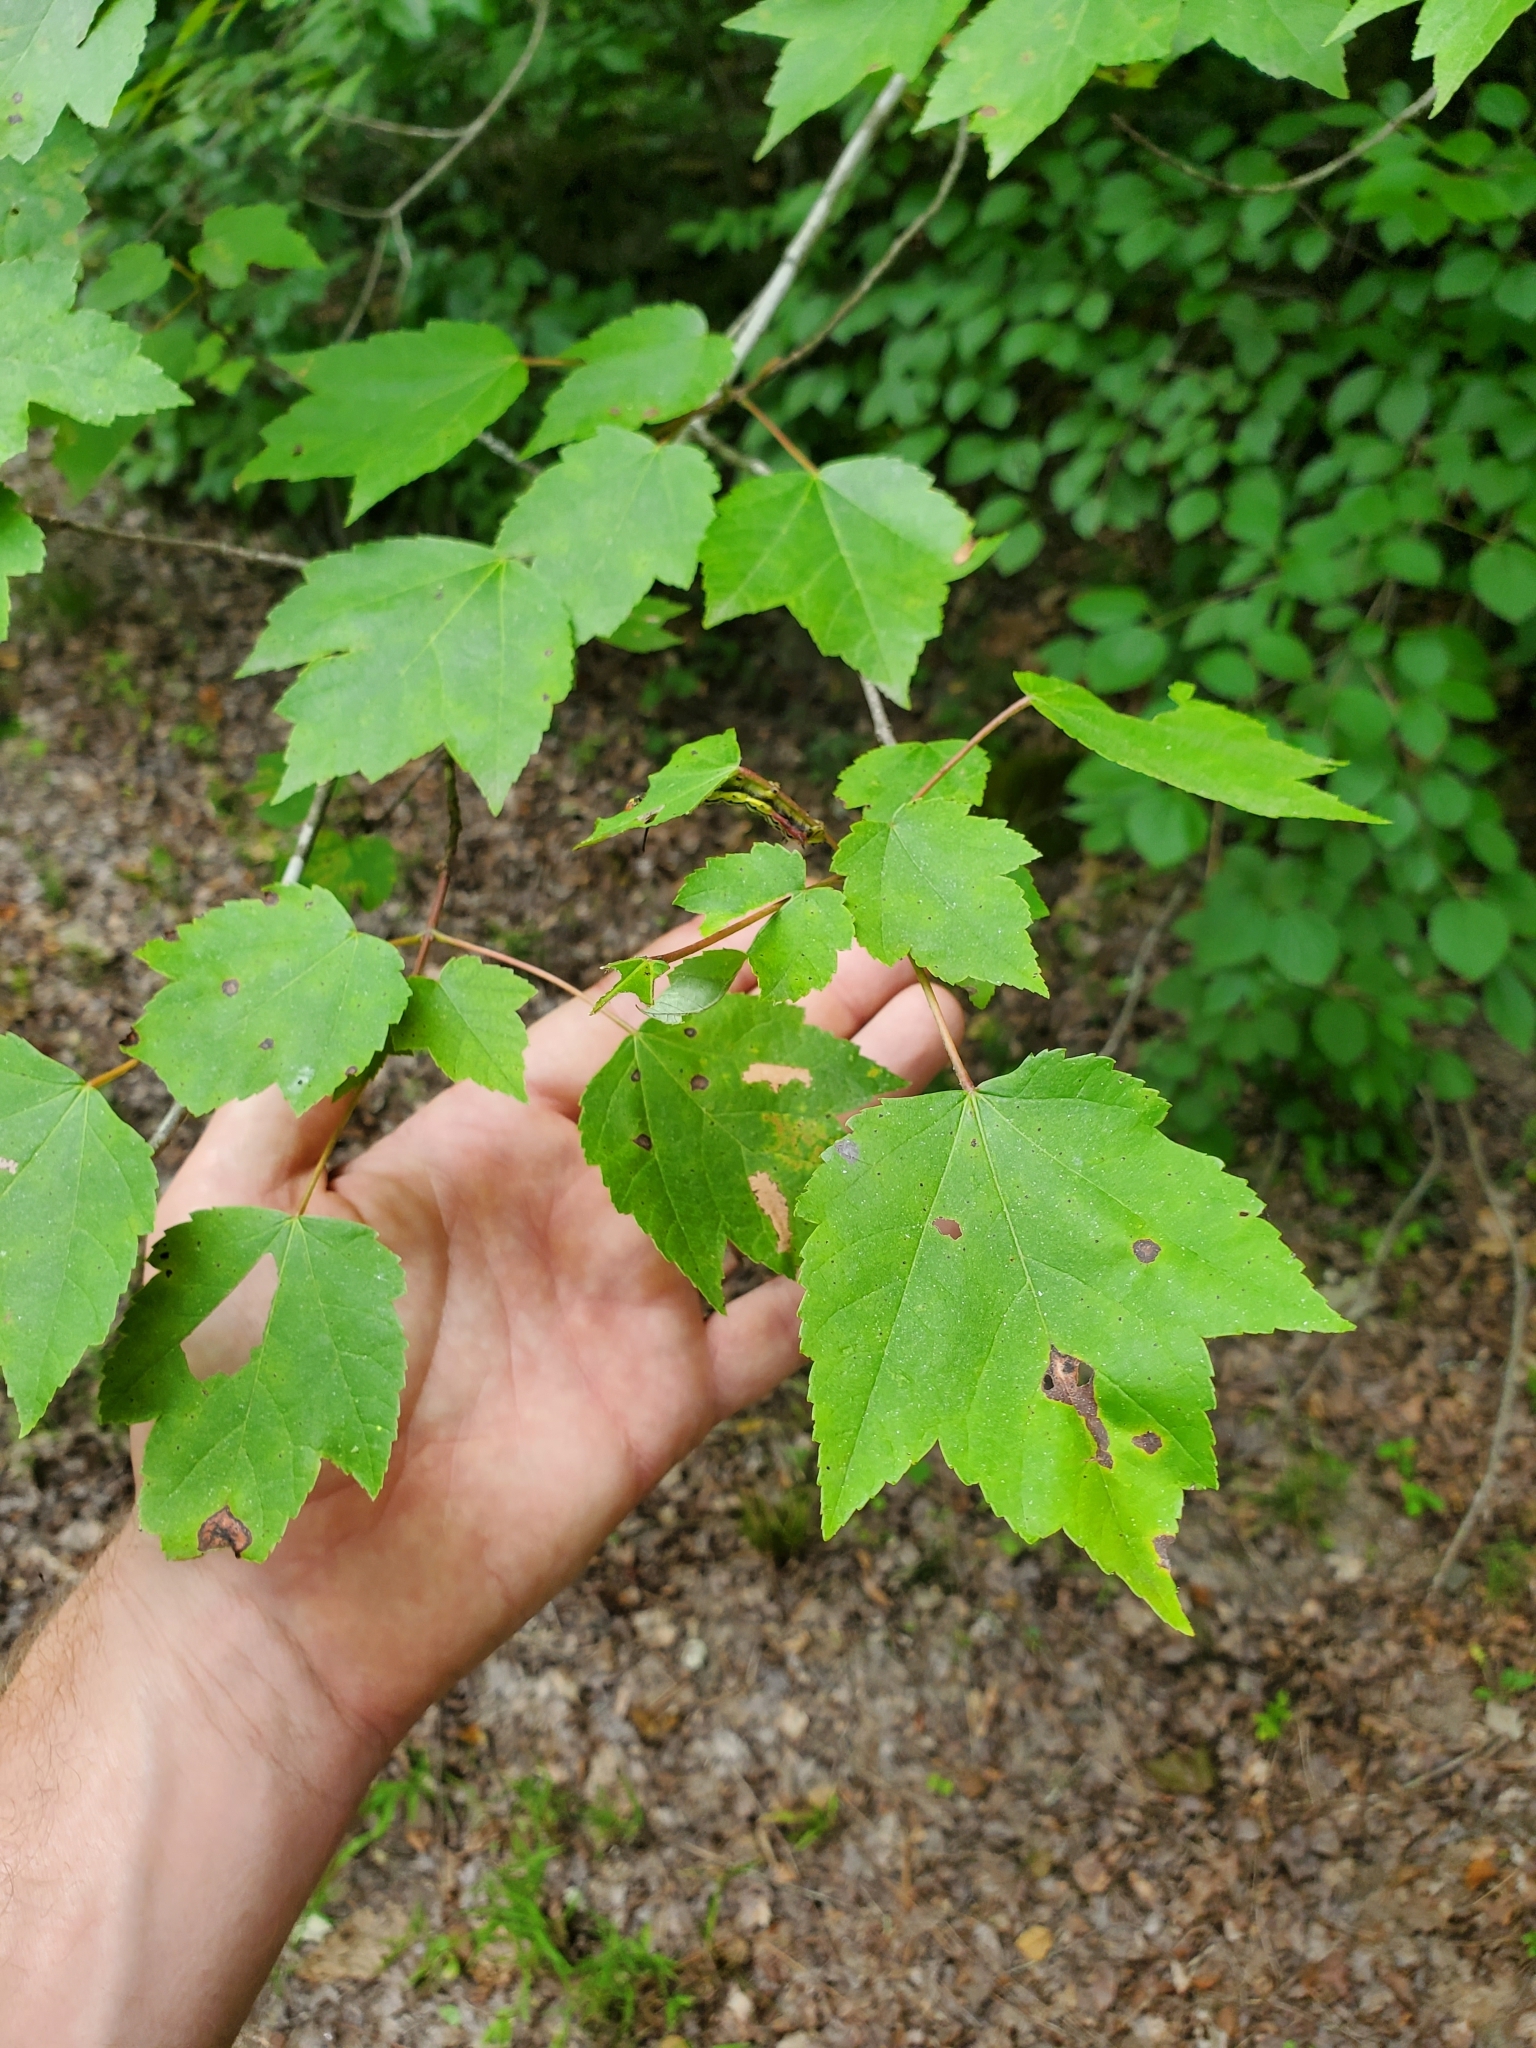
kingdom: Plantae
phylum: Tracheophyta
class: Magnoliopsida
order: Sapindales
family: Sapindaceae
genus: Acer
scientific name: Acer rubrum
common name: Red maple
